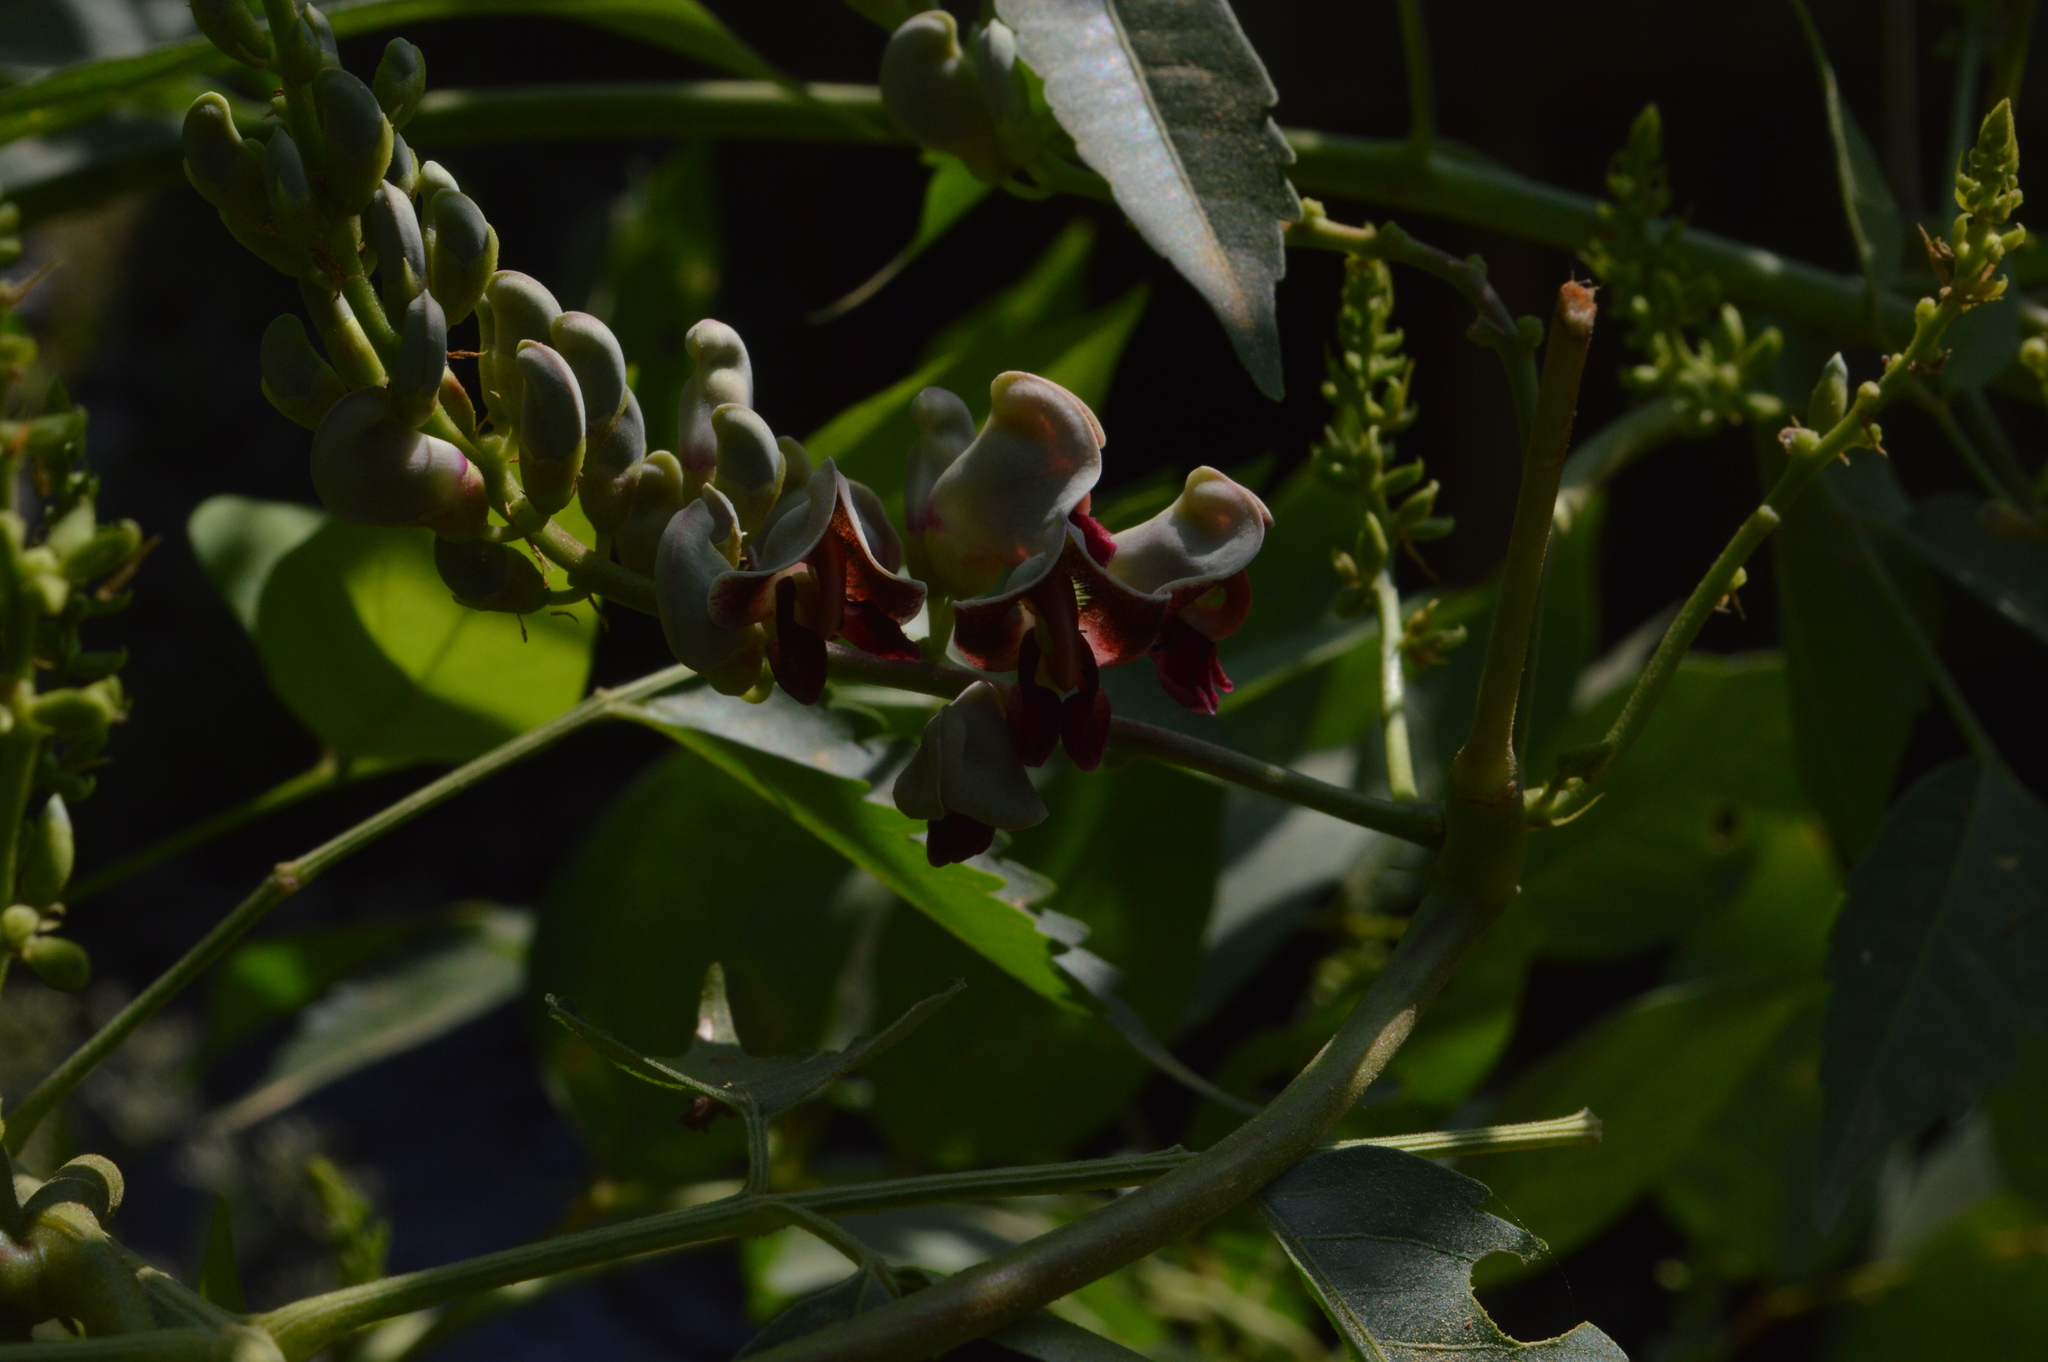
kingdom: Plantae
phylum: Tracheophyta
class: Magnoliopsida
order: Fabales
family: Fabaceae
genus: Apios
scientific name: Apios americana
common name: American potato-bean
